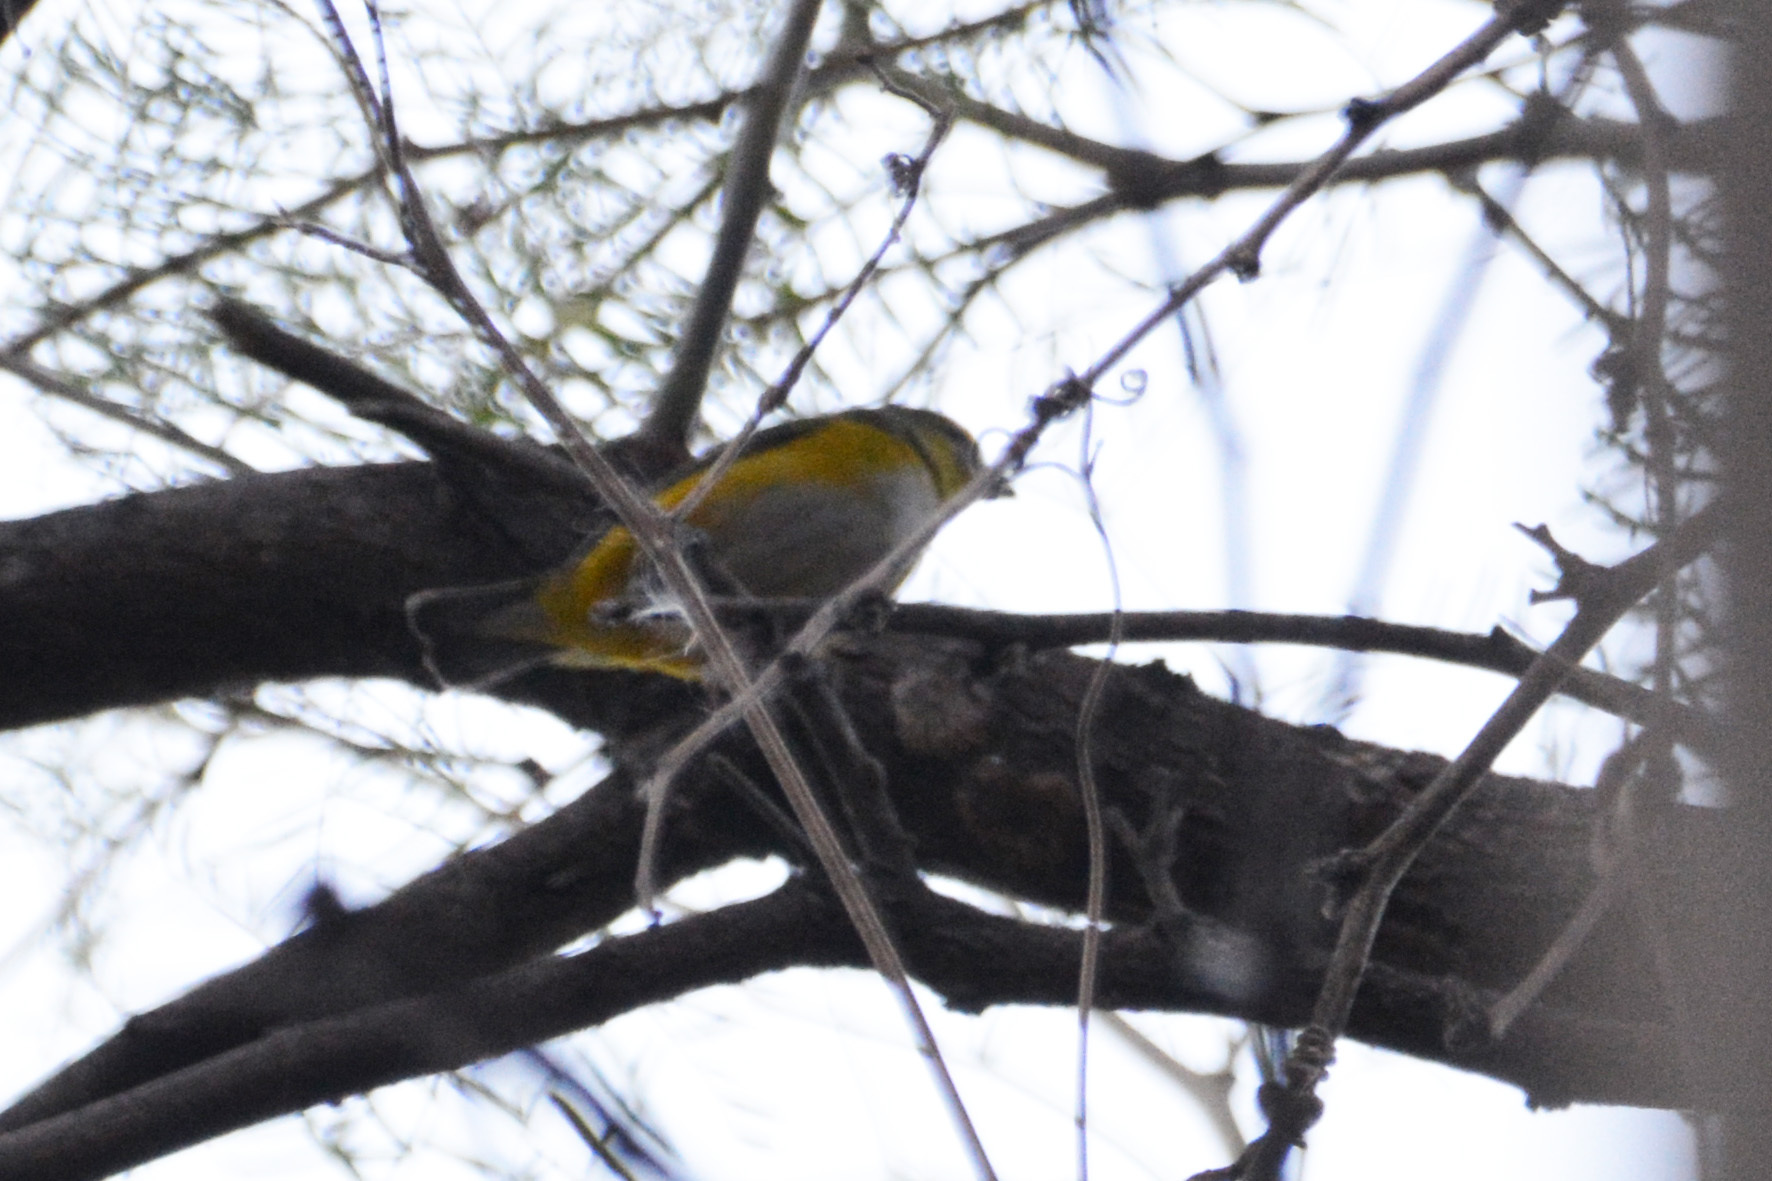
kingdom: Animalia
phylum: Chordata
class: Aves
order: Passeriformes
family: Fringillidae
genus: Euphonia
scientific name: Euphonia chlorotica
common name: Purple-throated euphonia
